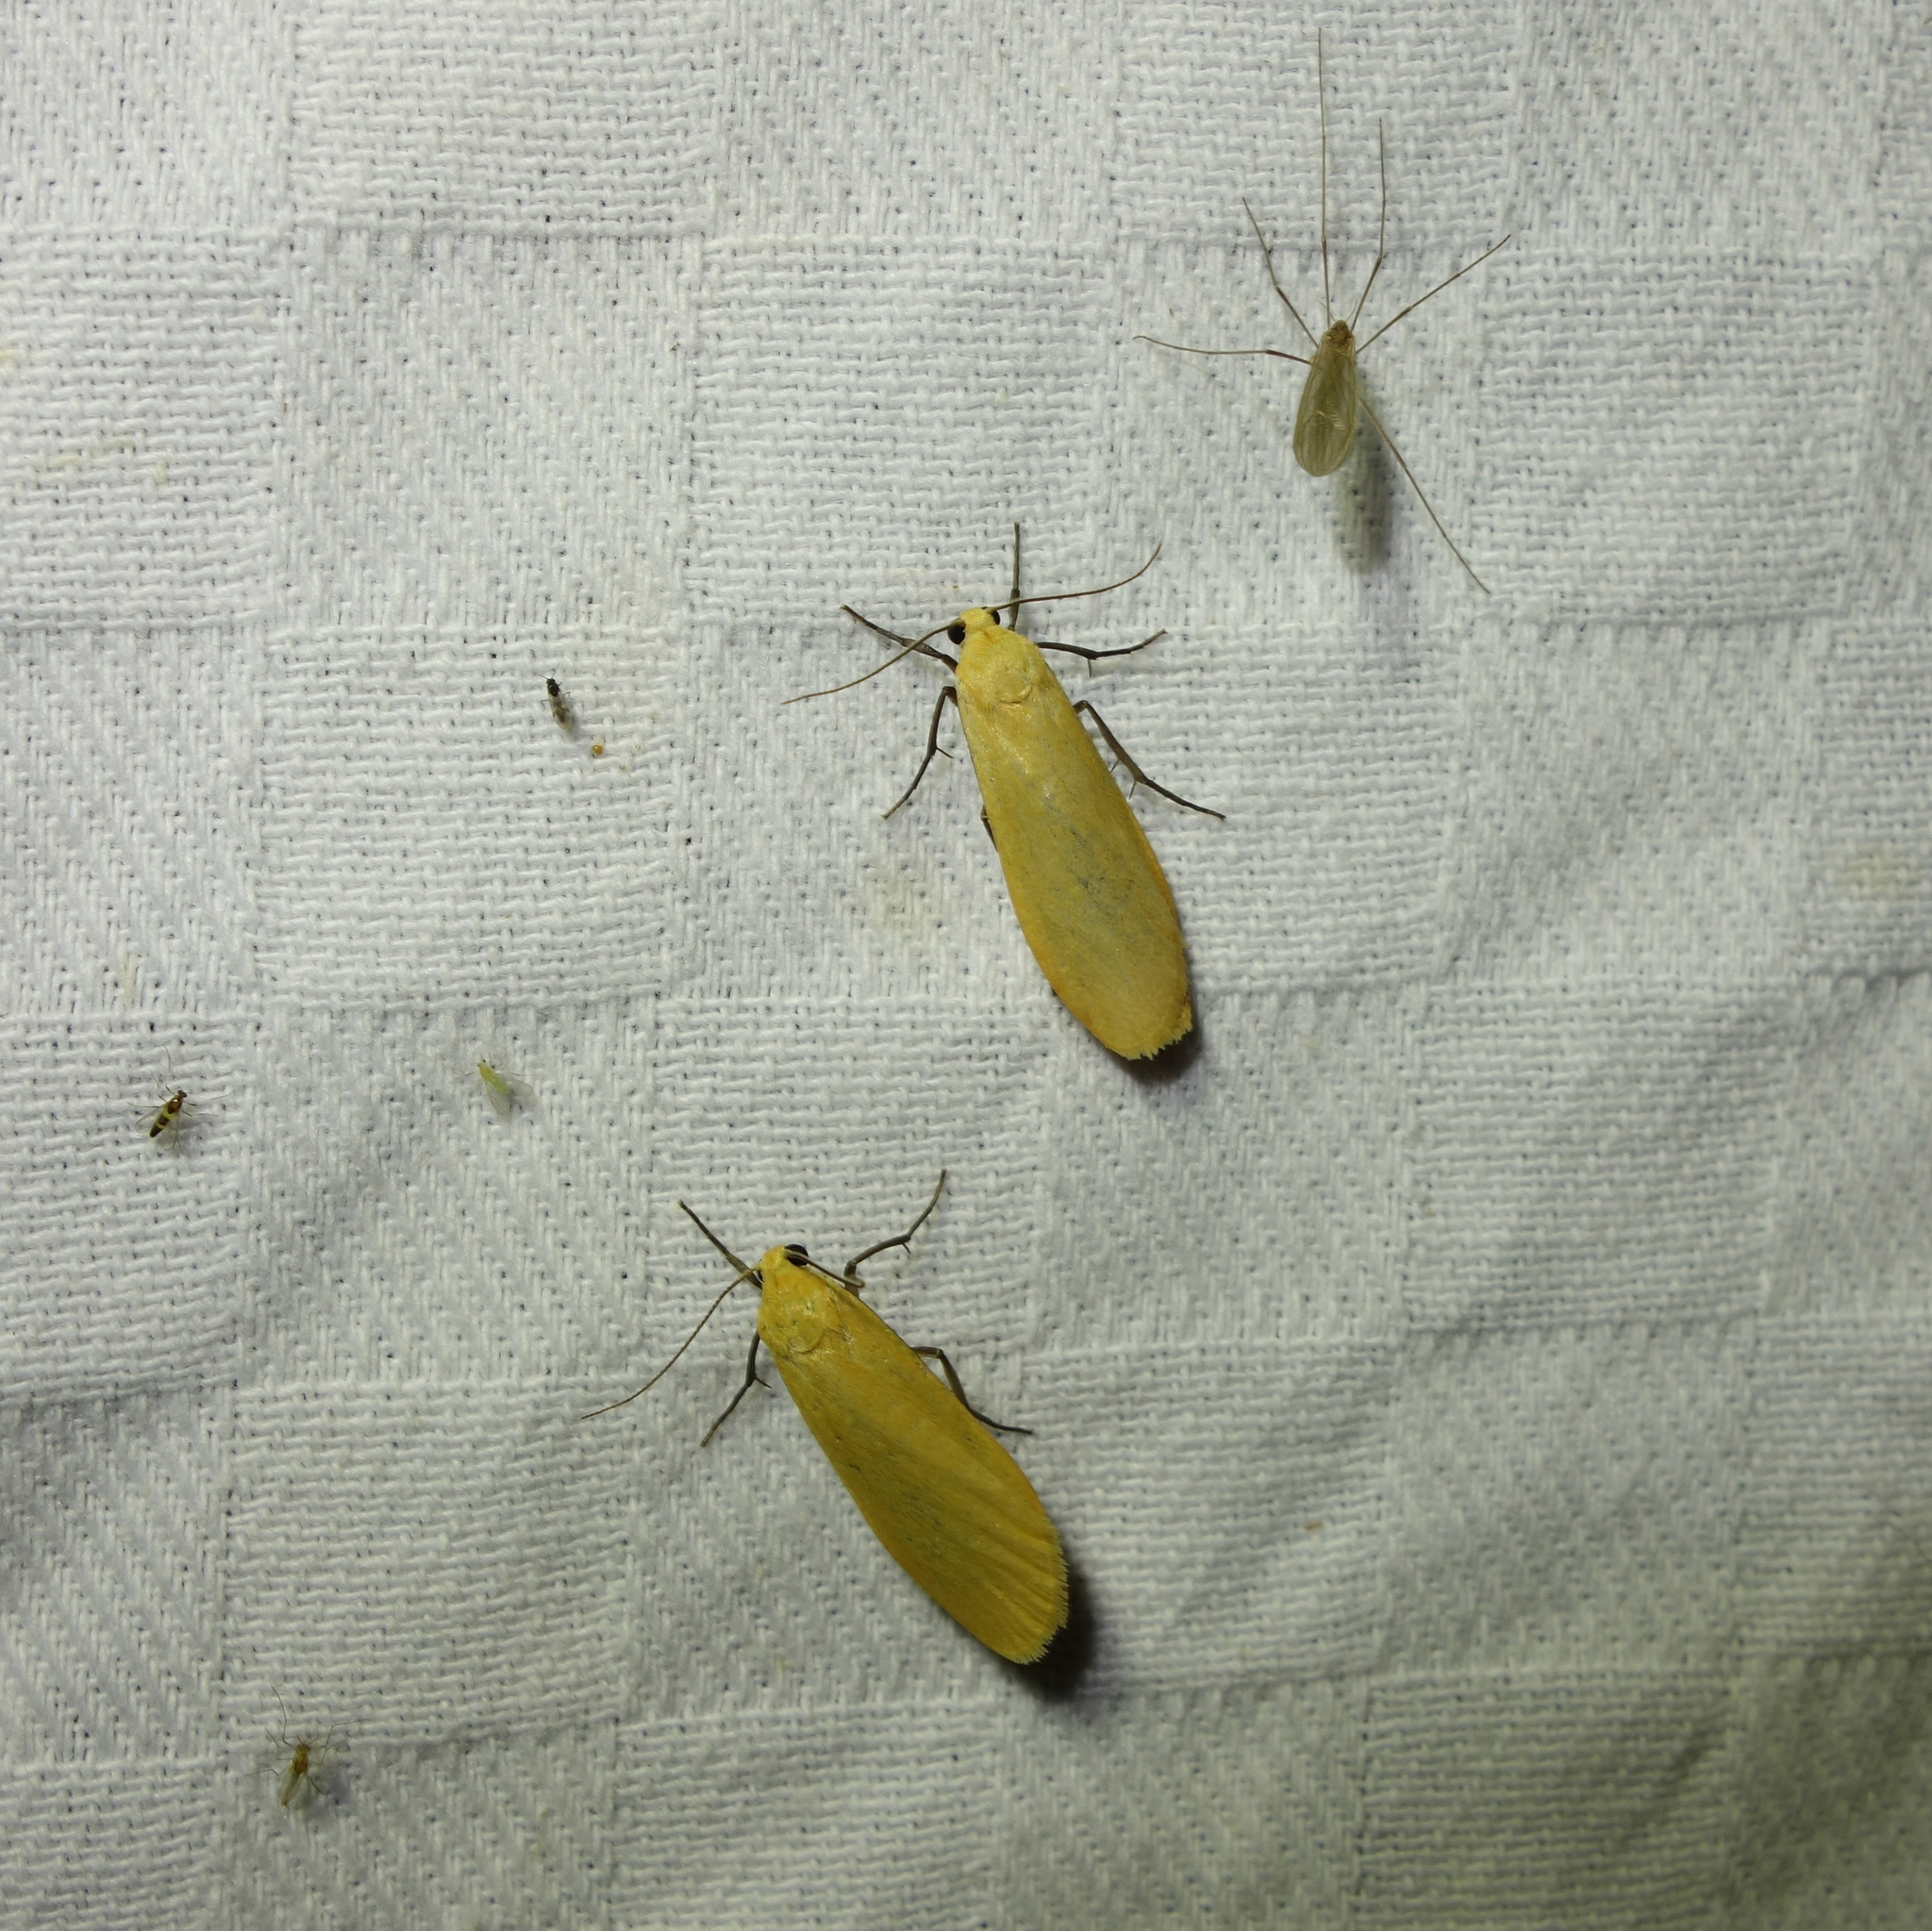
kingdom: Animalia
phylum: Arthropoda
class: Insecta
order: Lepidoptera
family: Erebidae
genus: Wittia
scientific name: Wittia sororcula
